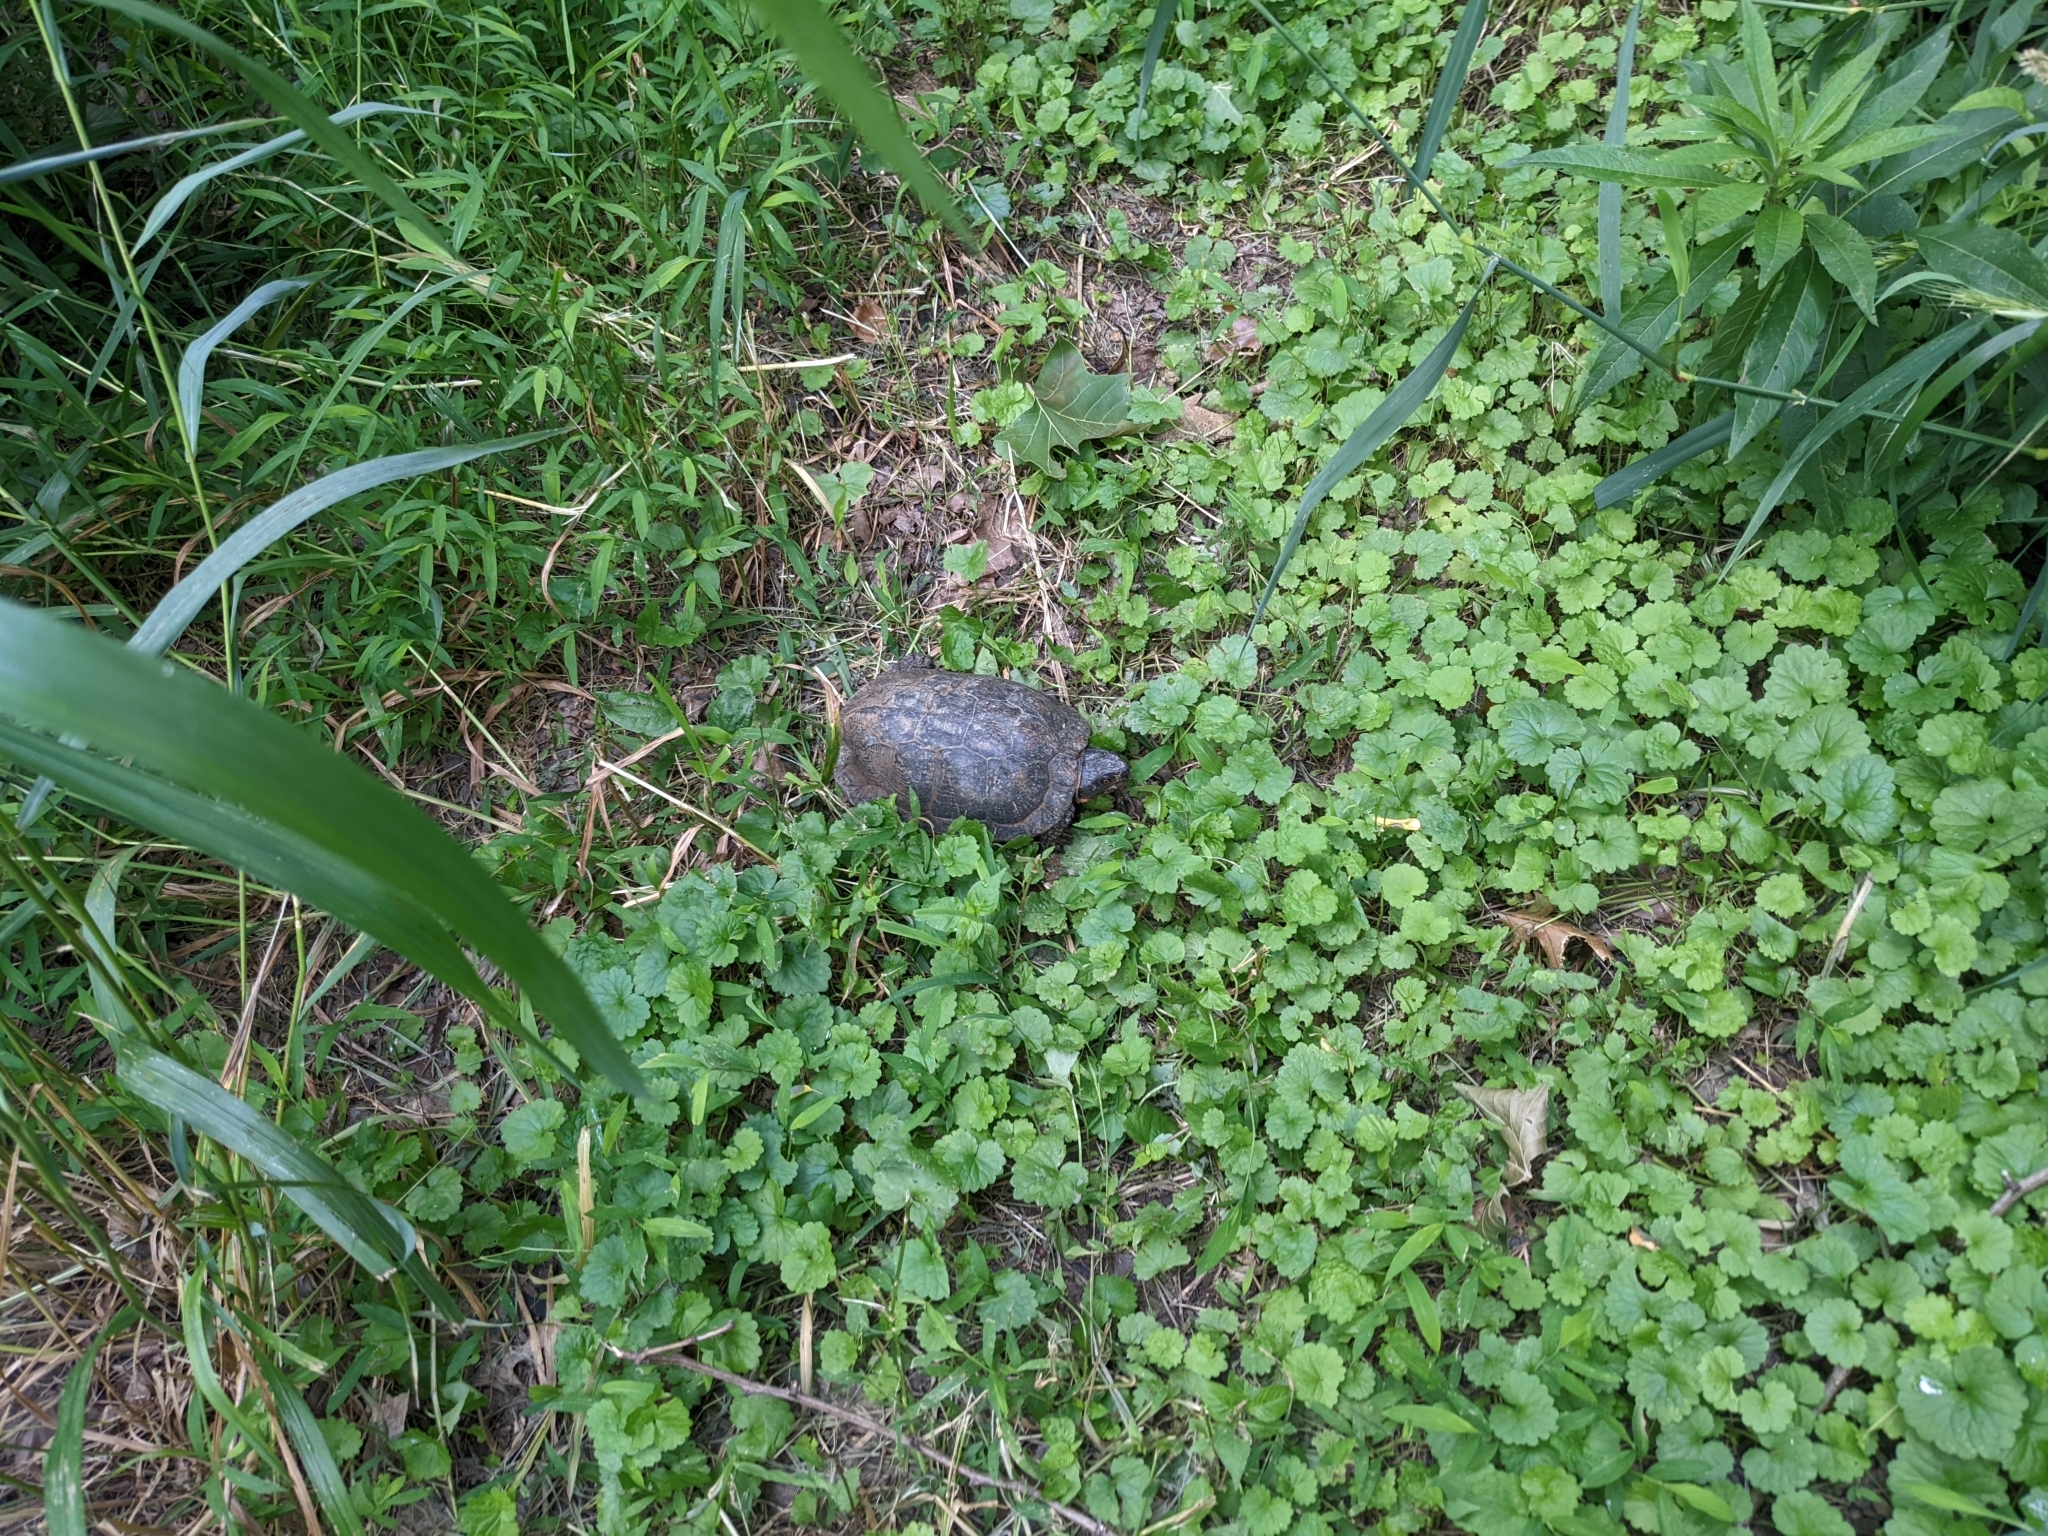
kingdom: Animalia
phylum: Chordata
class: Testudines
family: Emydidae
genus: Glyptemys
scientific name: Glyptemys insculpta
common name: Wood turtle
